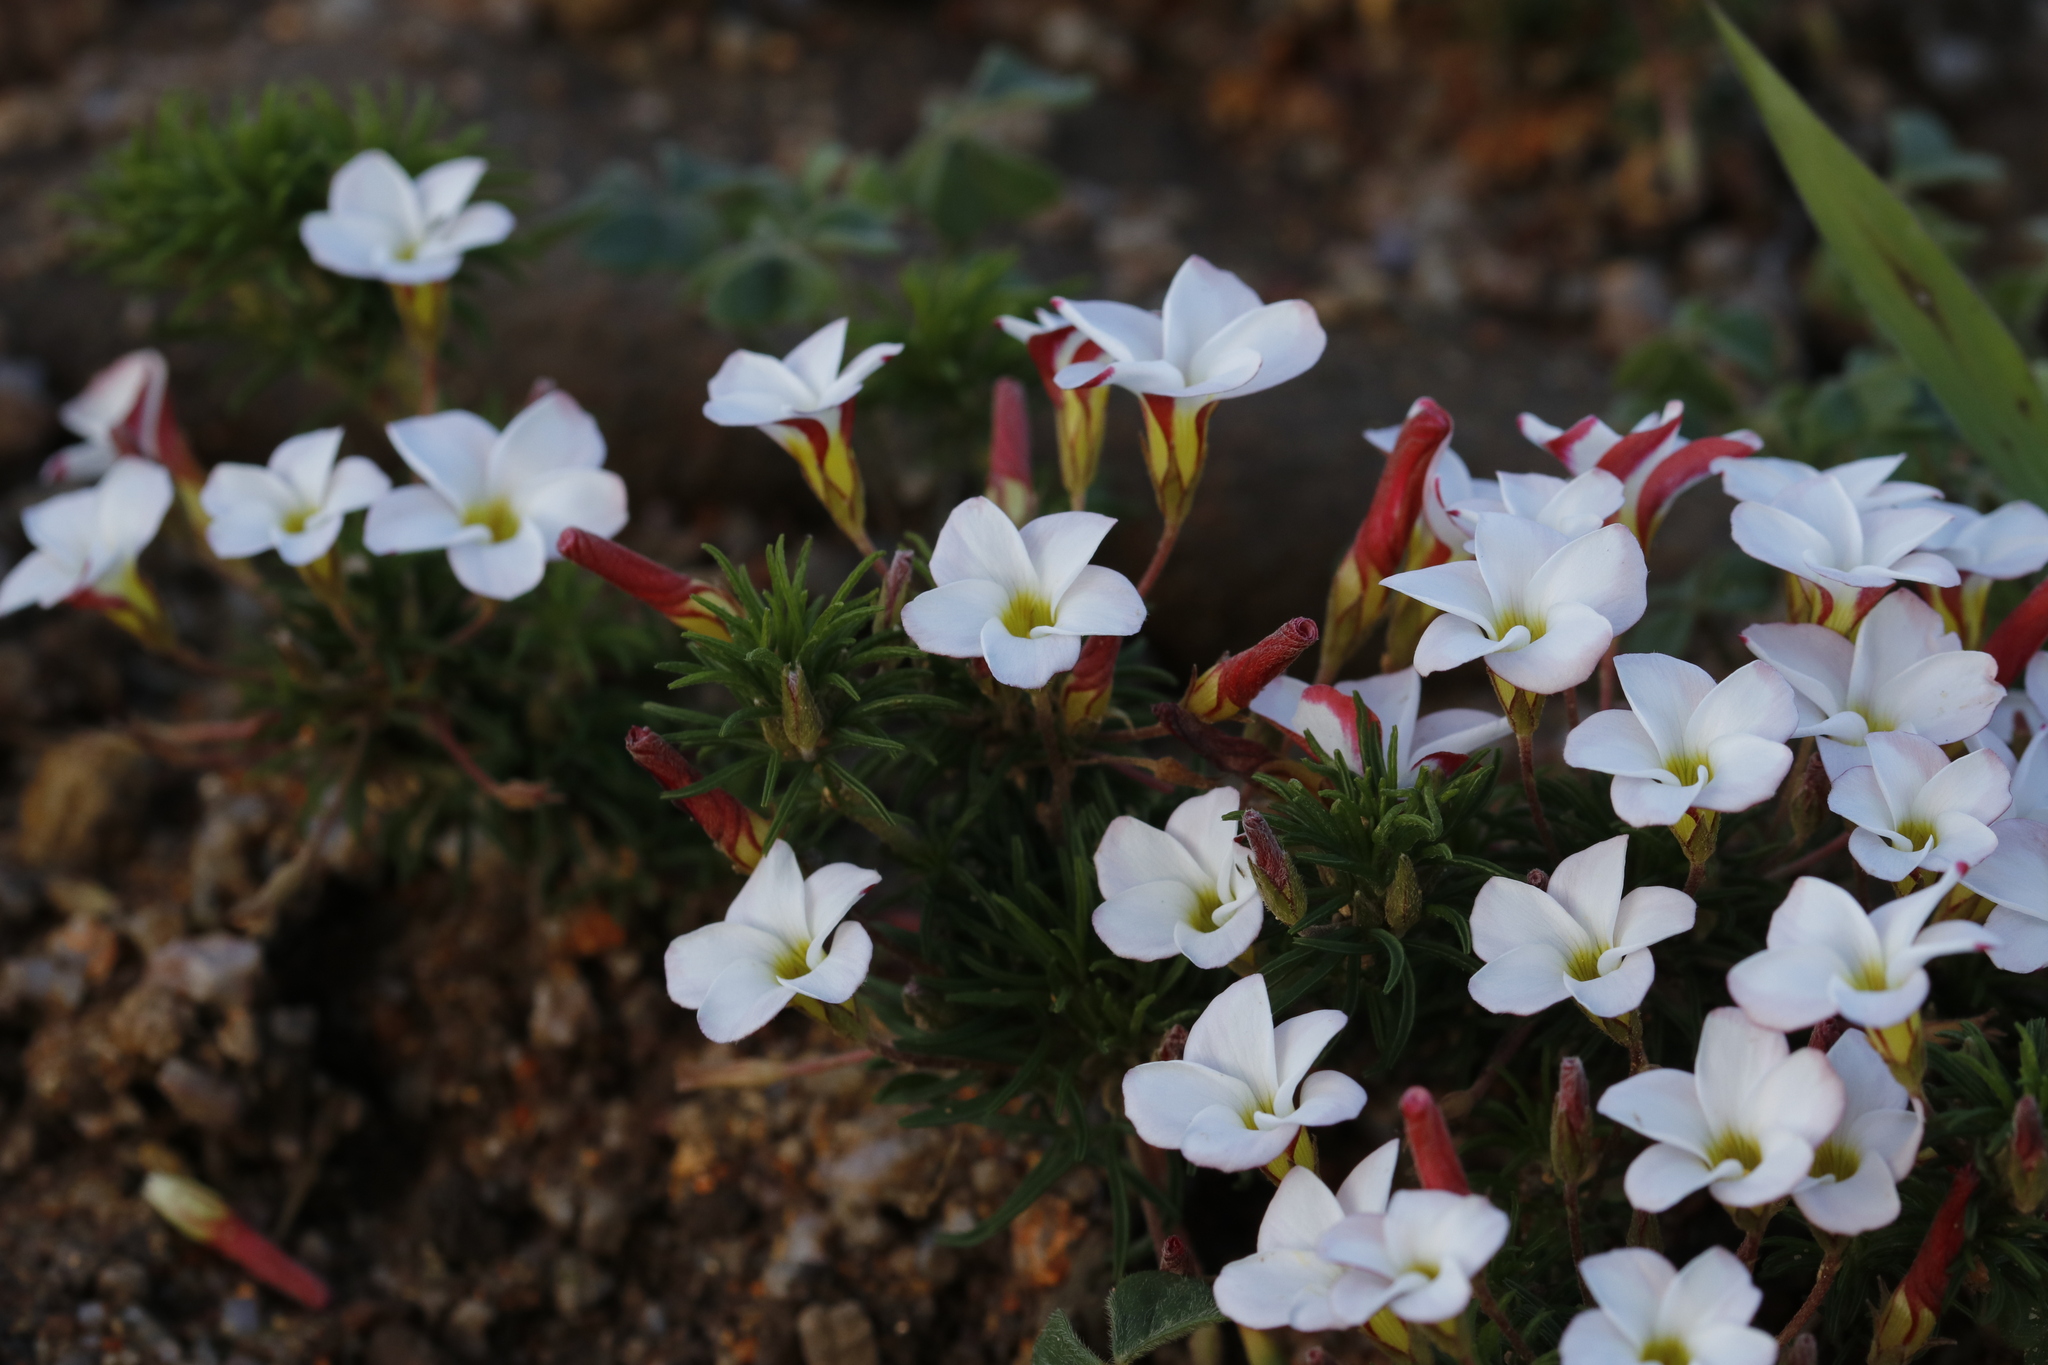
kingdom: Plantae
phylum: Tracheophyta
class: Magnoliopsida
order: Oxalidales
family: Oxalidaceae
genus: Oxalis
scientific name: Oxalis tenuifolia
